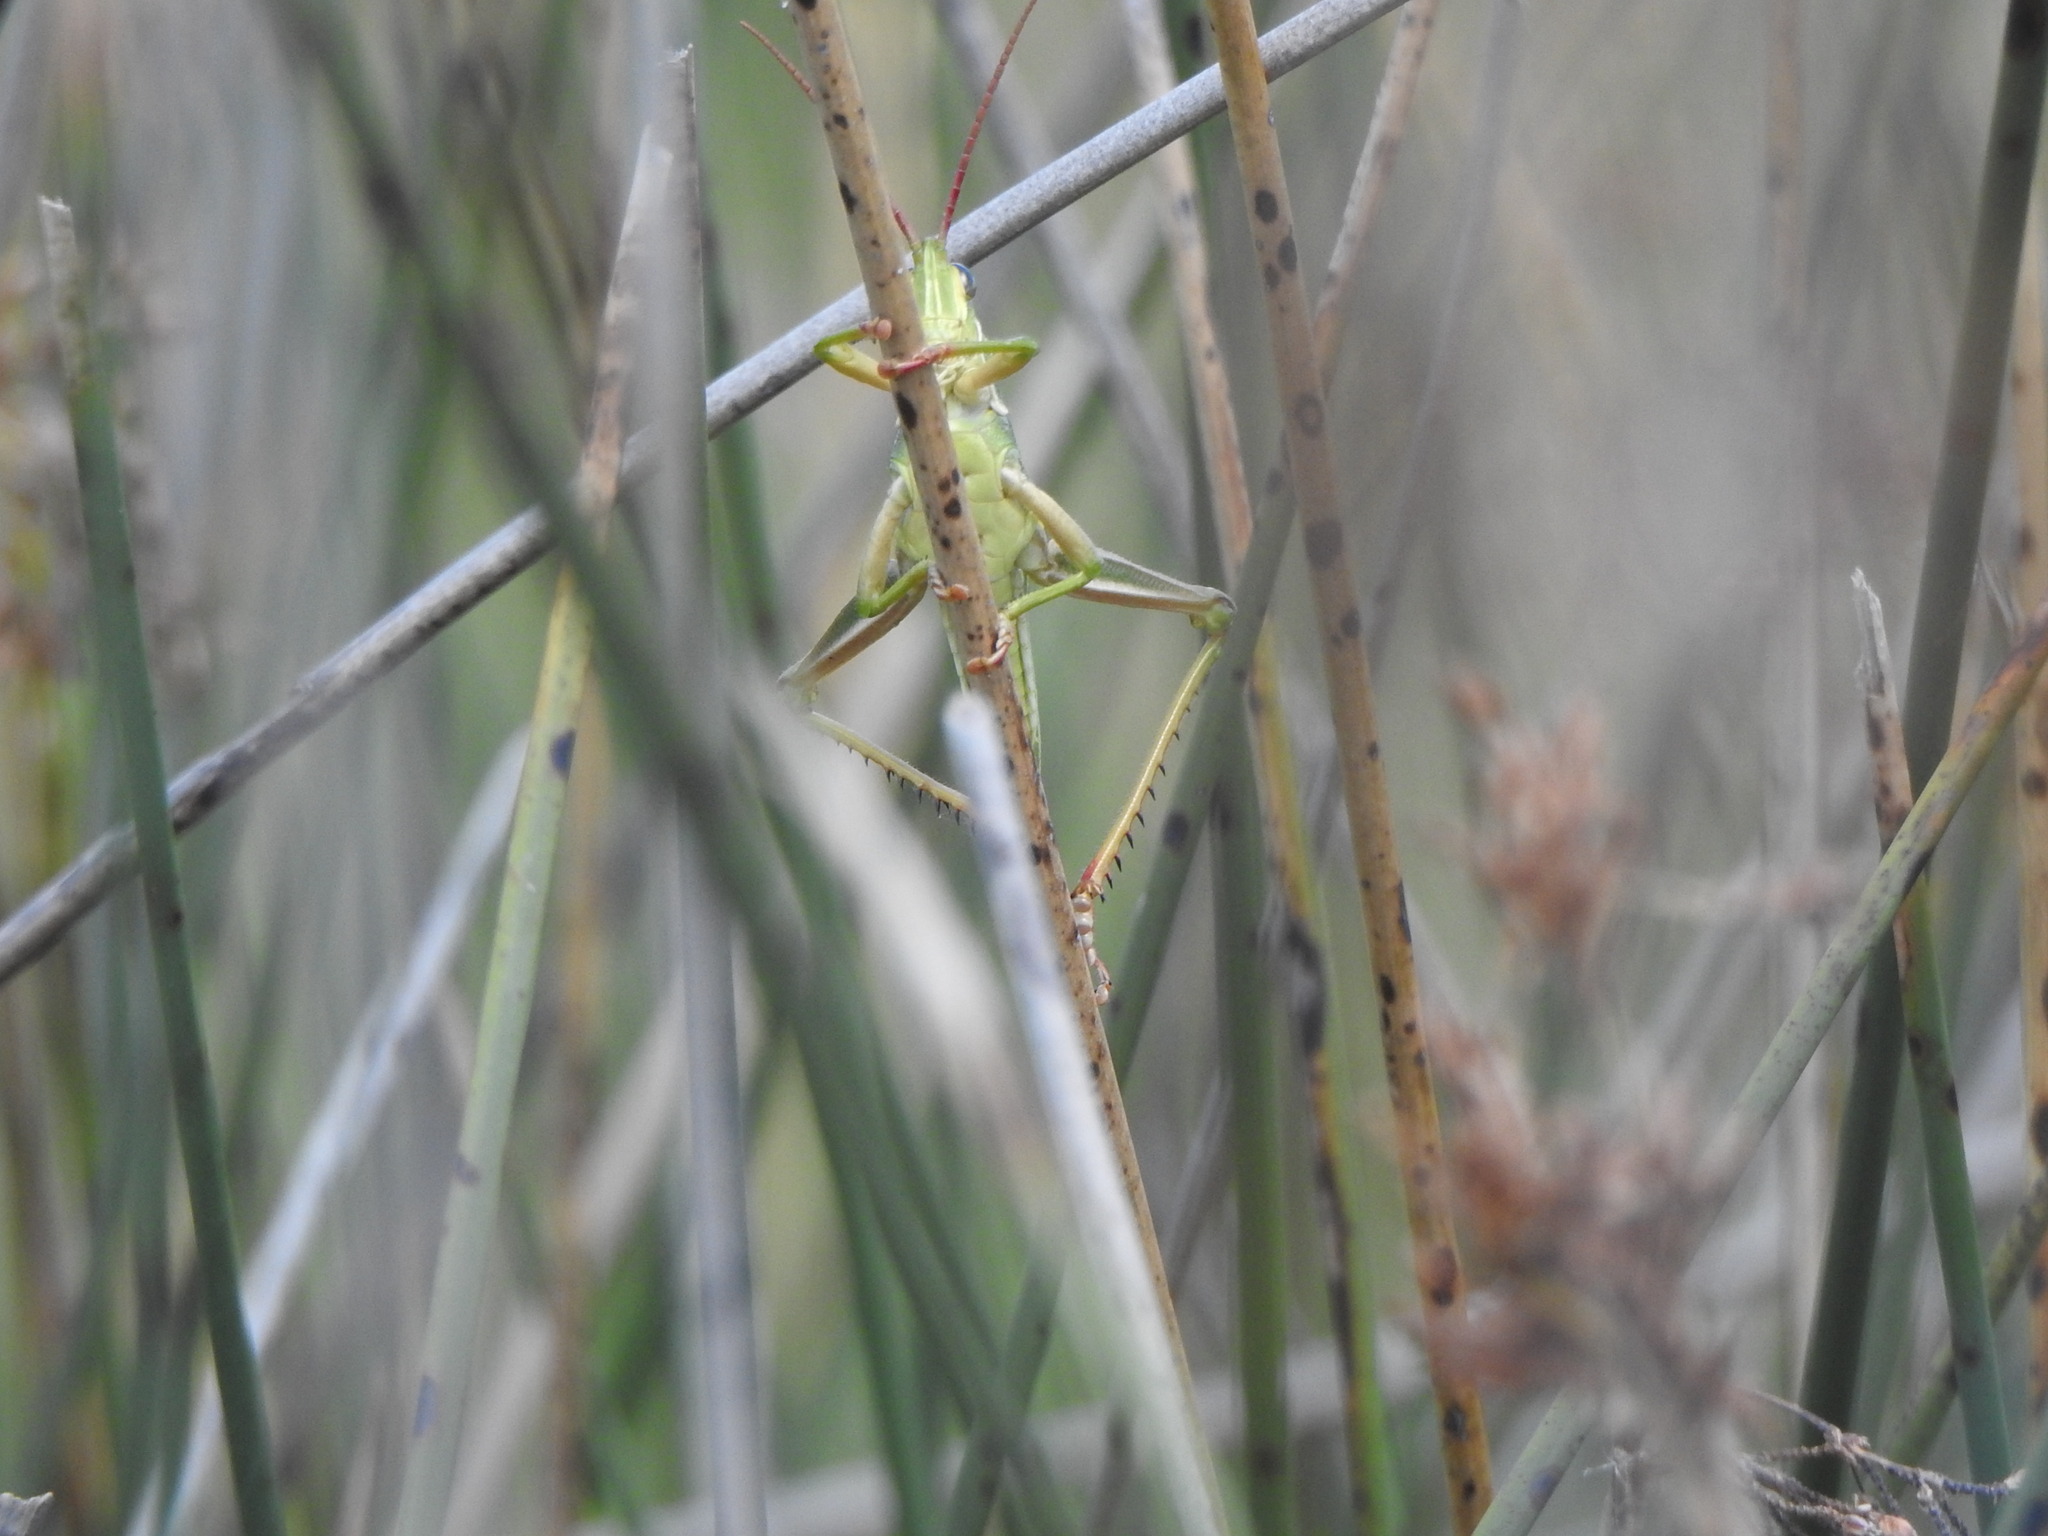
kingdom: Animalia
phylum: Arthropoda
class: Insecta
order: Orthoptera
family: Romaleidae
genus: Staleochlora
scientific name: Staleochlora viridicata
